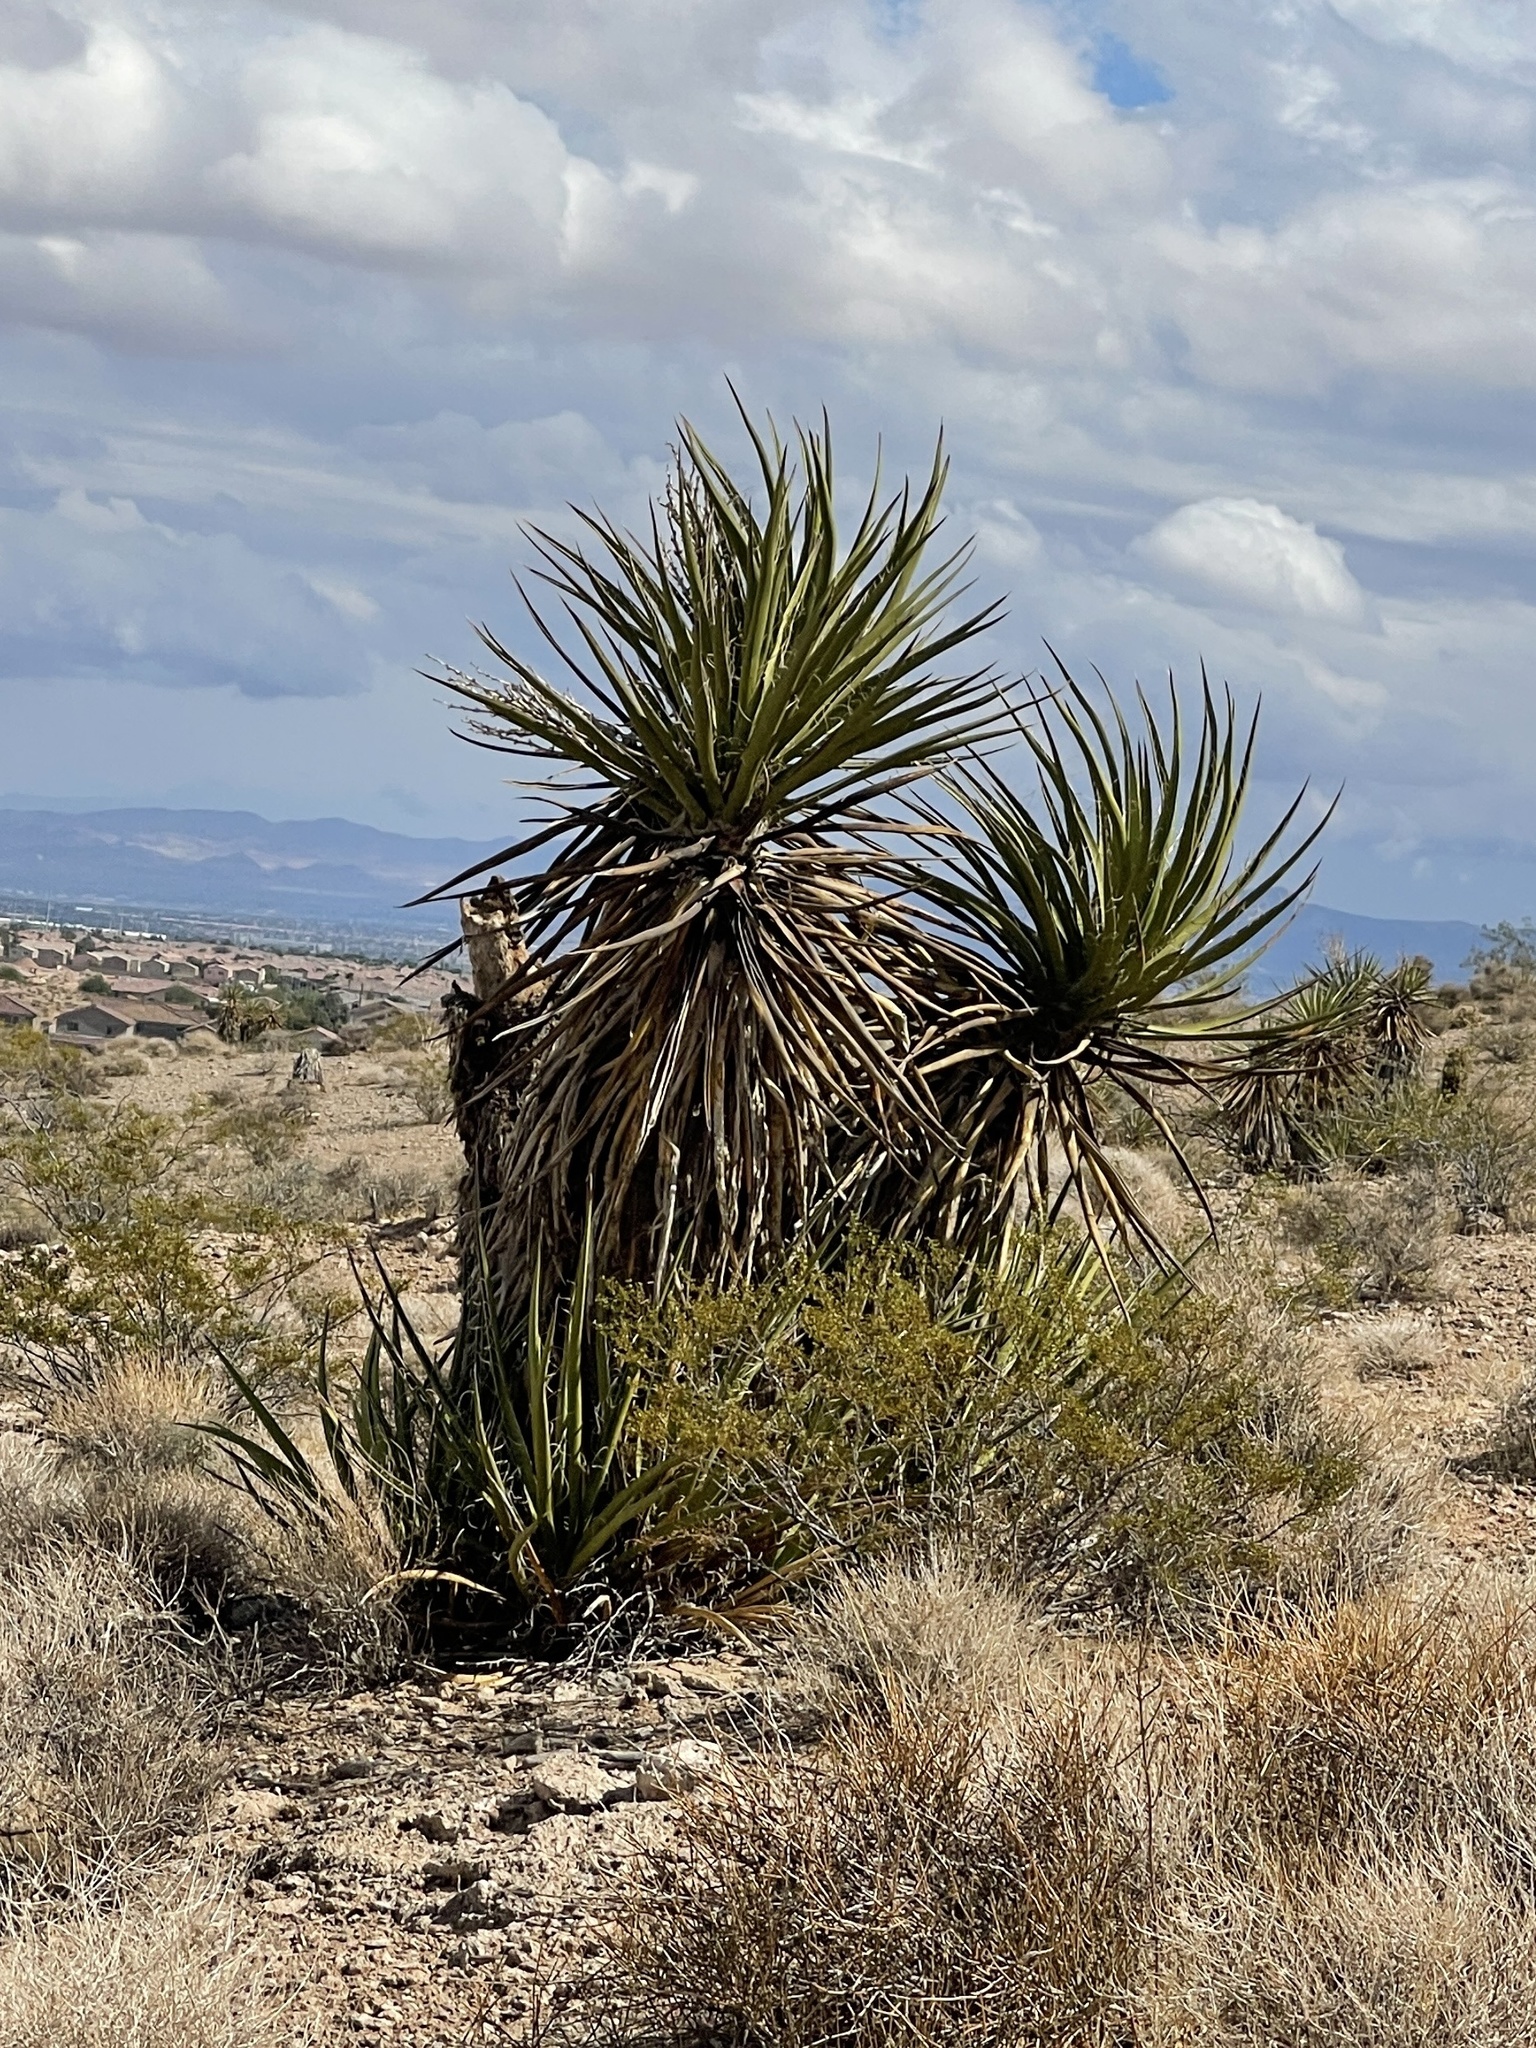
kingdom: Plantae
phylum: Tracheophyta
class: Liliopsida
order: Asparagales
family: Asparagaceae
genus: Yucca
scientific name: Yucca schidigera
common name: Mojave yucca
